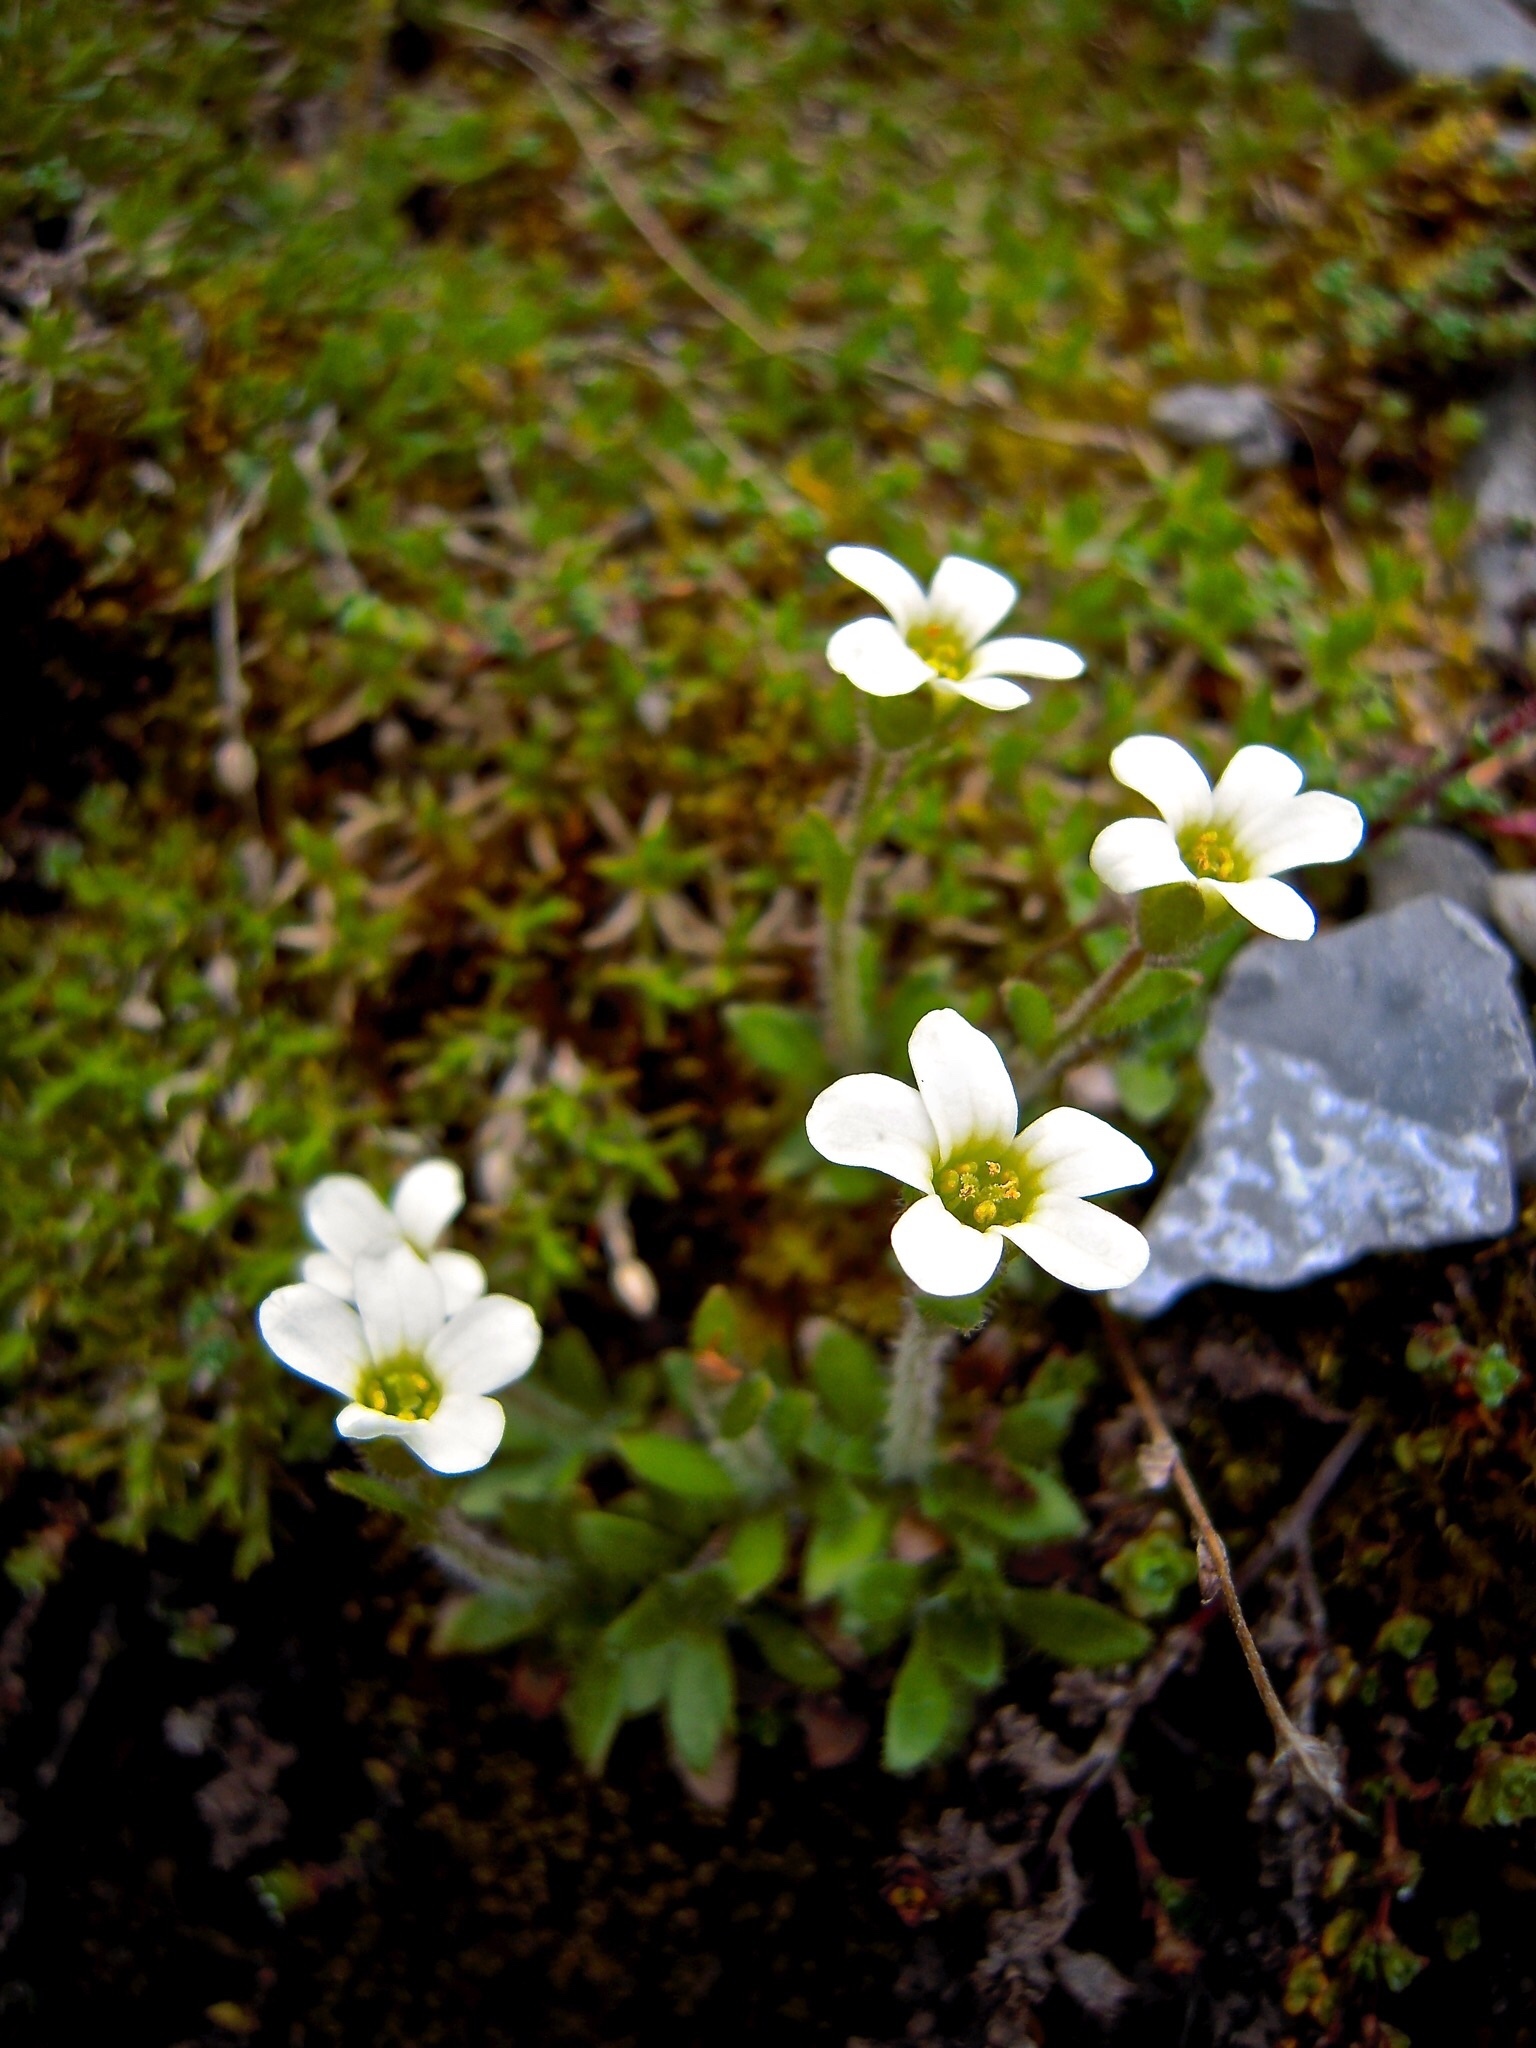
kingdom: Plantae
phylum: Tracheophyta
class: Magnoliopsida
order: Saxifragales
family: Saxifragaceae
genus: Saxifraga
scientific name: Saxifraga androsacea
